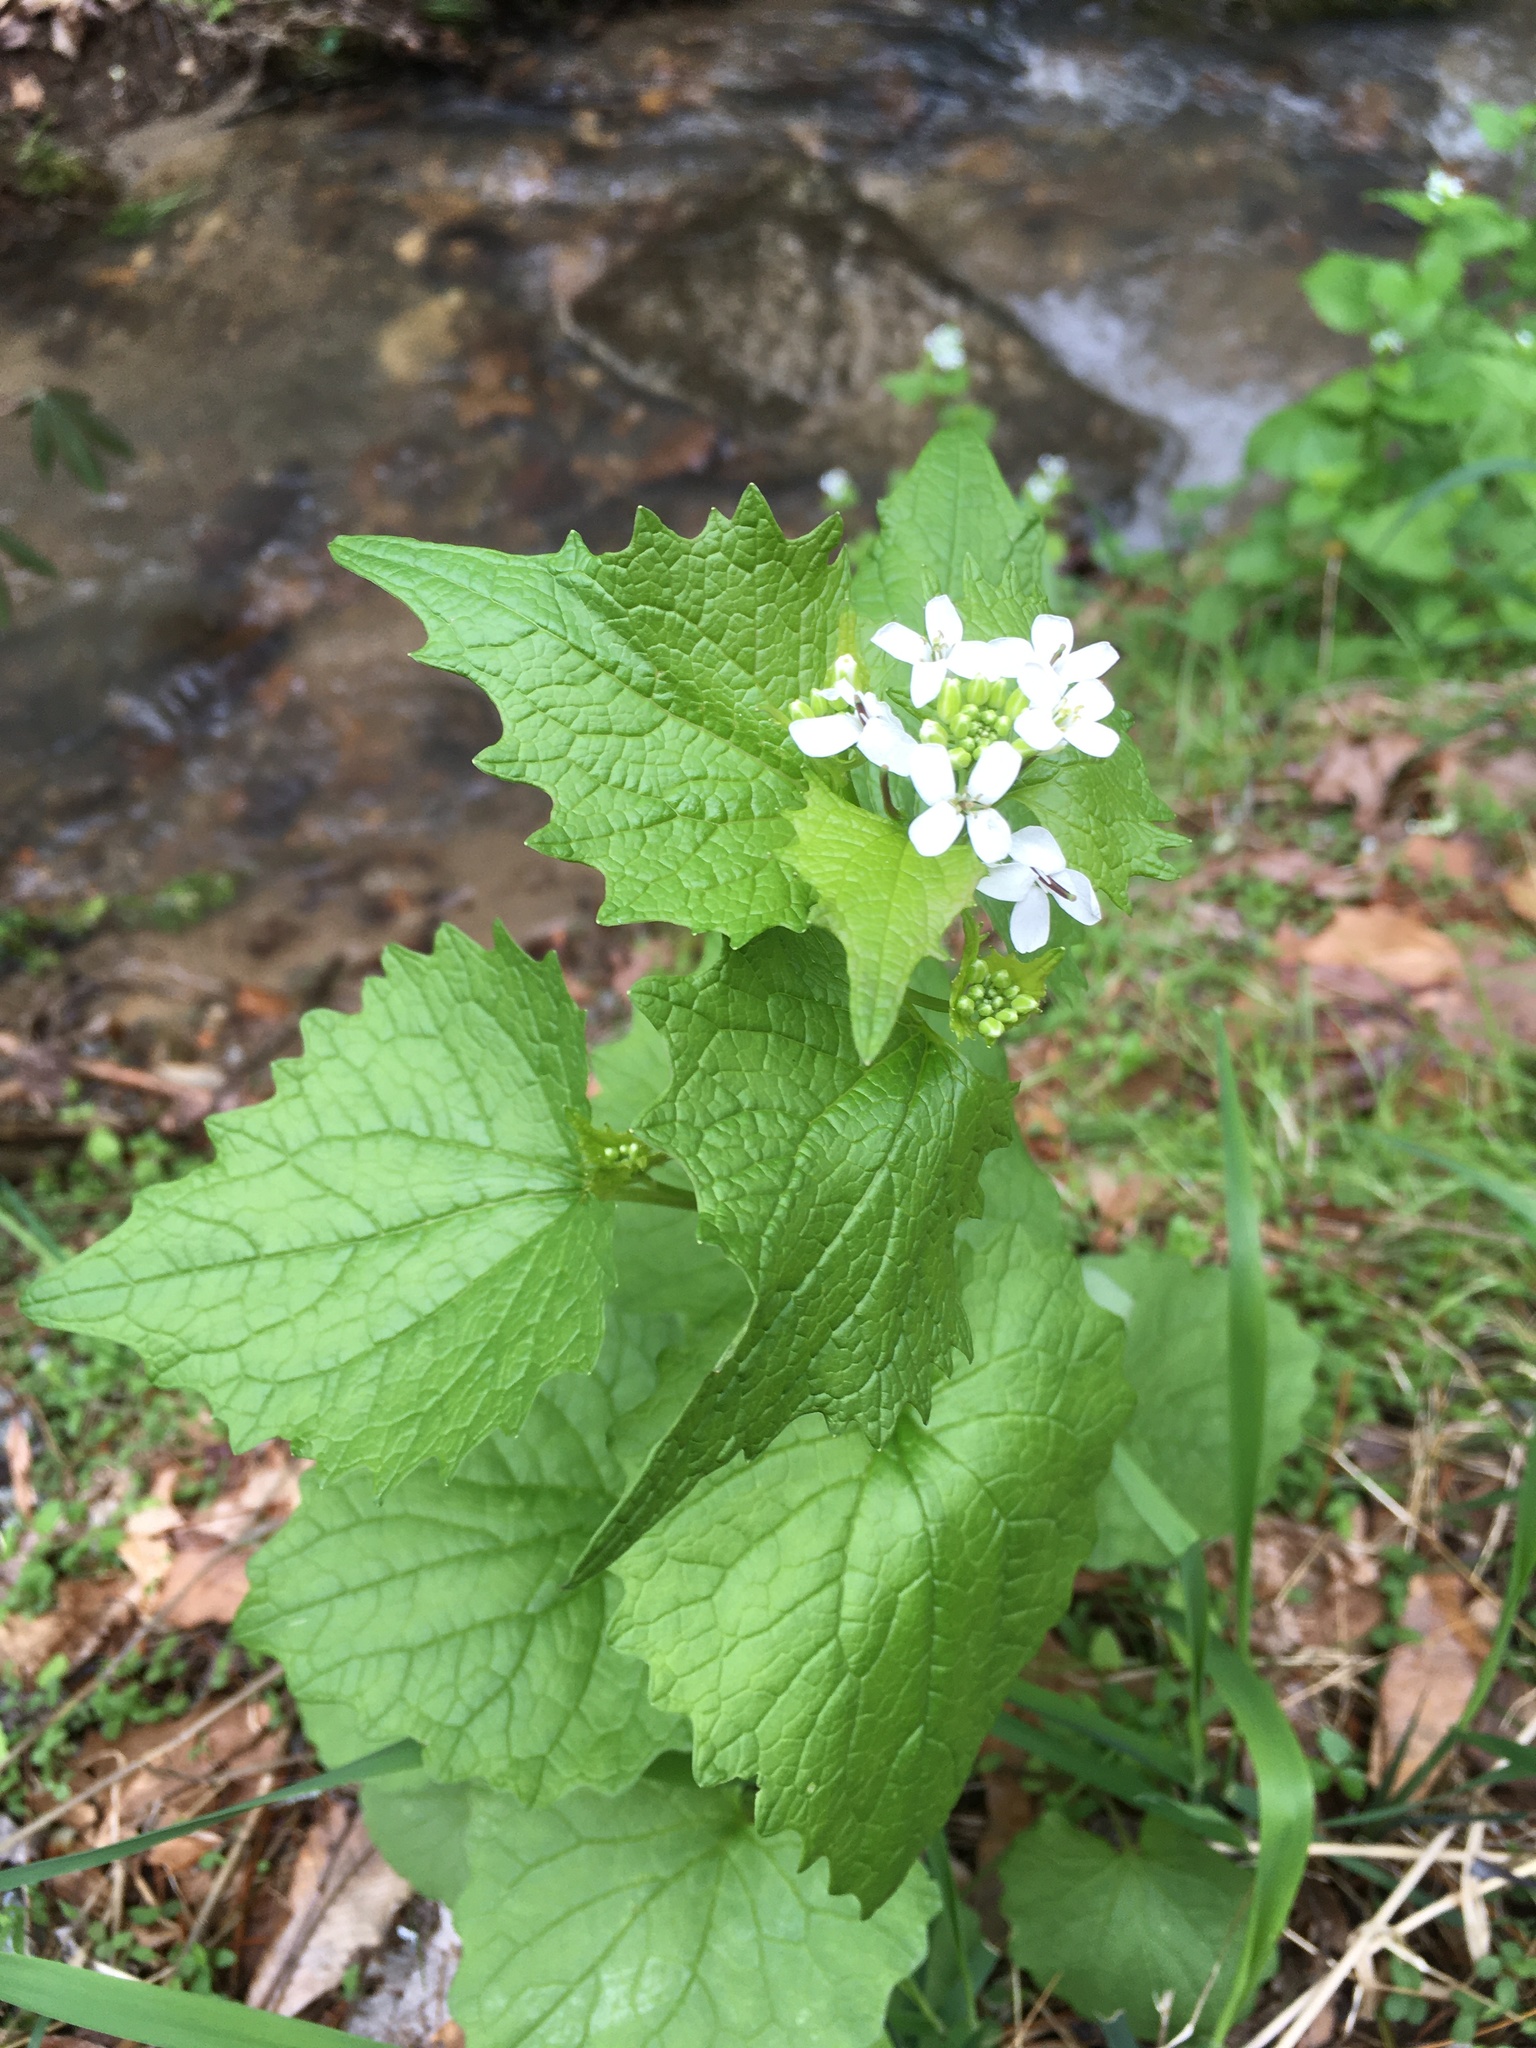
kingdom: Plantae
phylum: Tracheophyta
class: Magnoliopsida
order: Brassicales
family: Brassicaceae
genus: Alliaria
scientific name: Alliaria petiolata
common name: Garlic mustard
